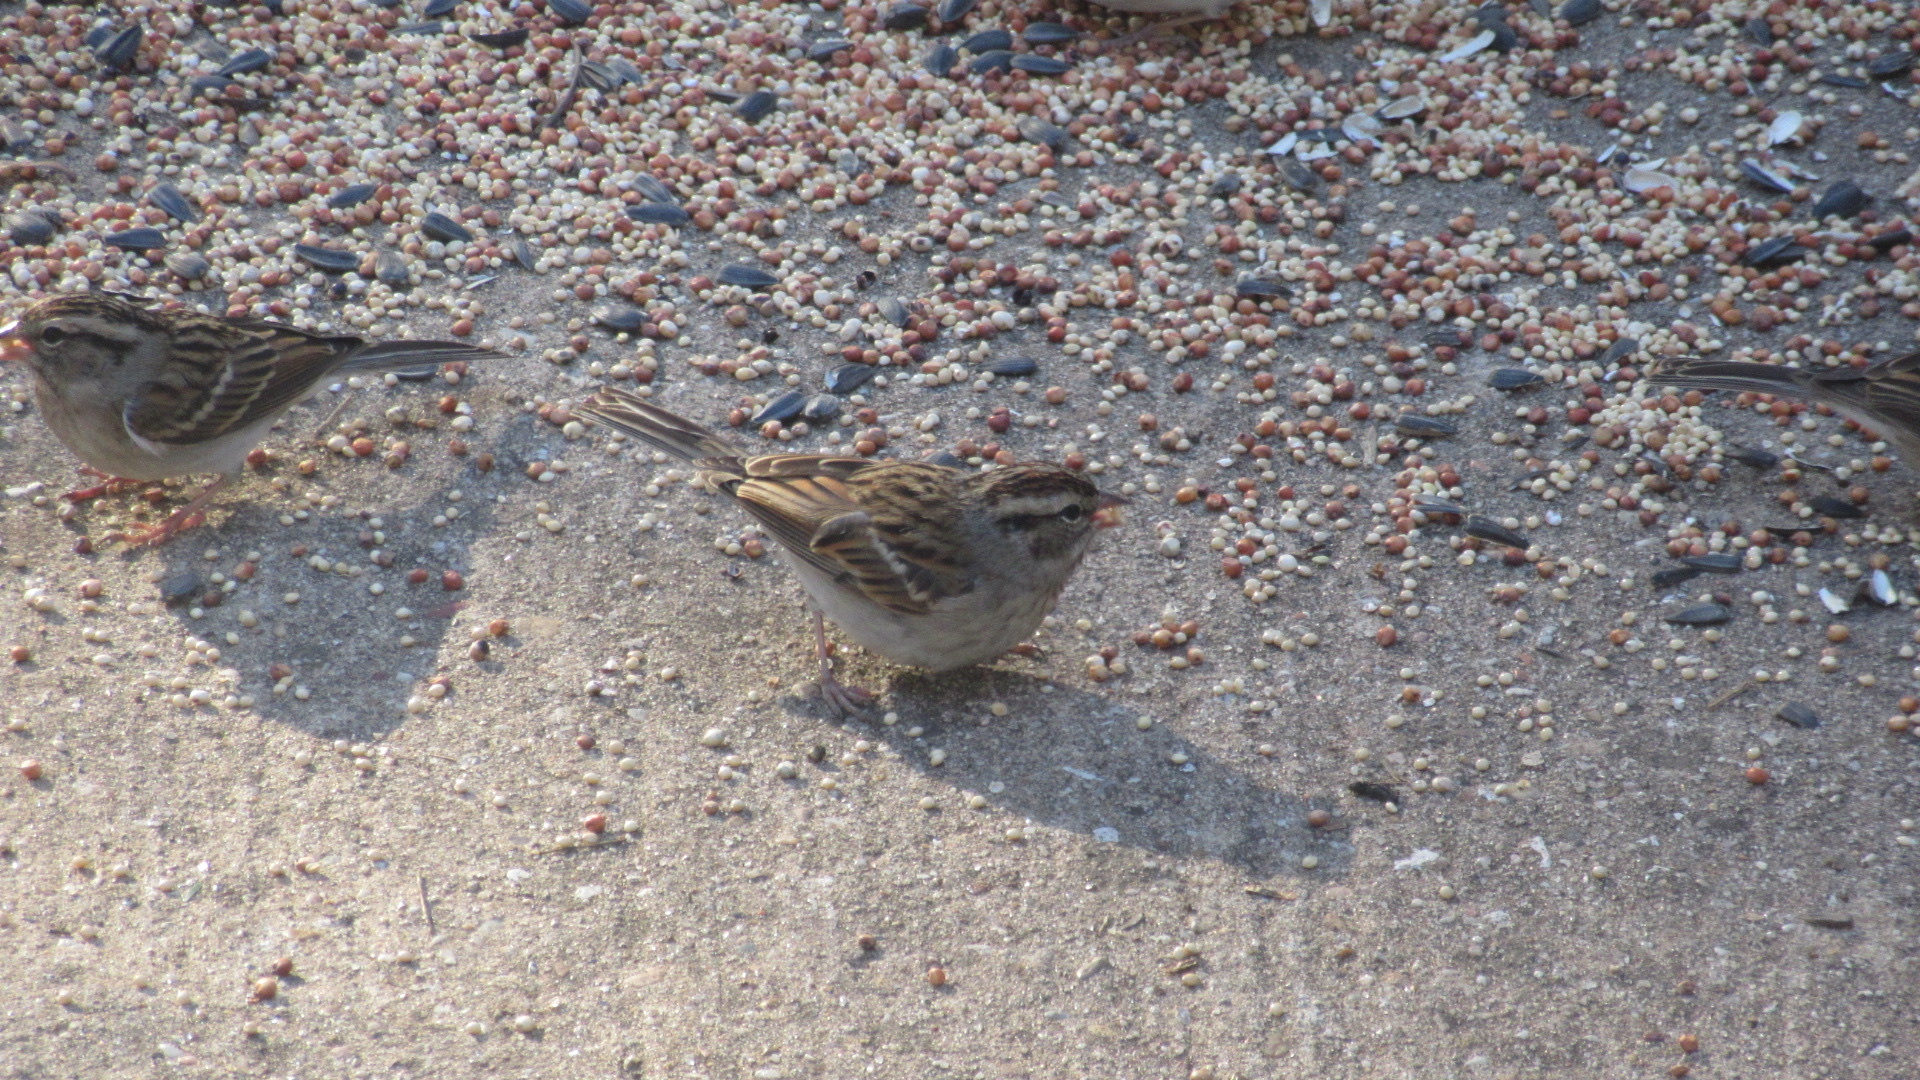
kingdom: Animalia
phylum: Chordata
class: Aves
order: Passeriformes
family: Passerellidae
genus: Spizella
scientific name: Spizella passerina
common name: Chipping sparrow
